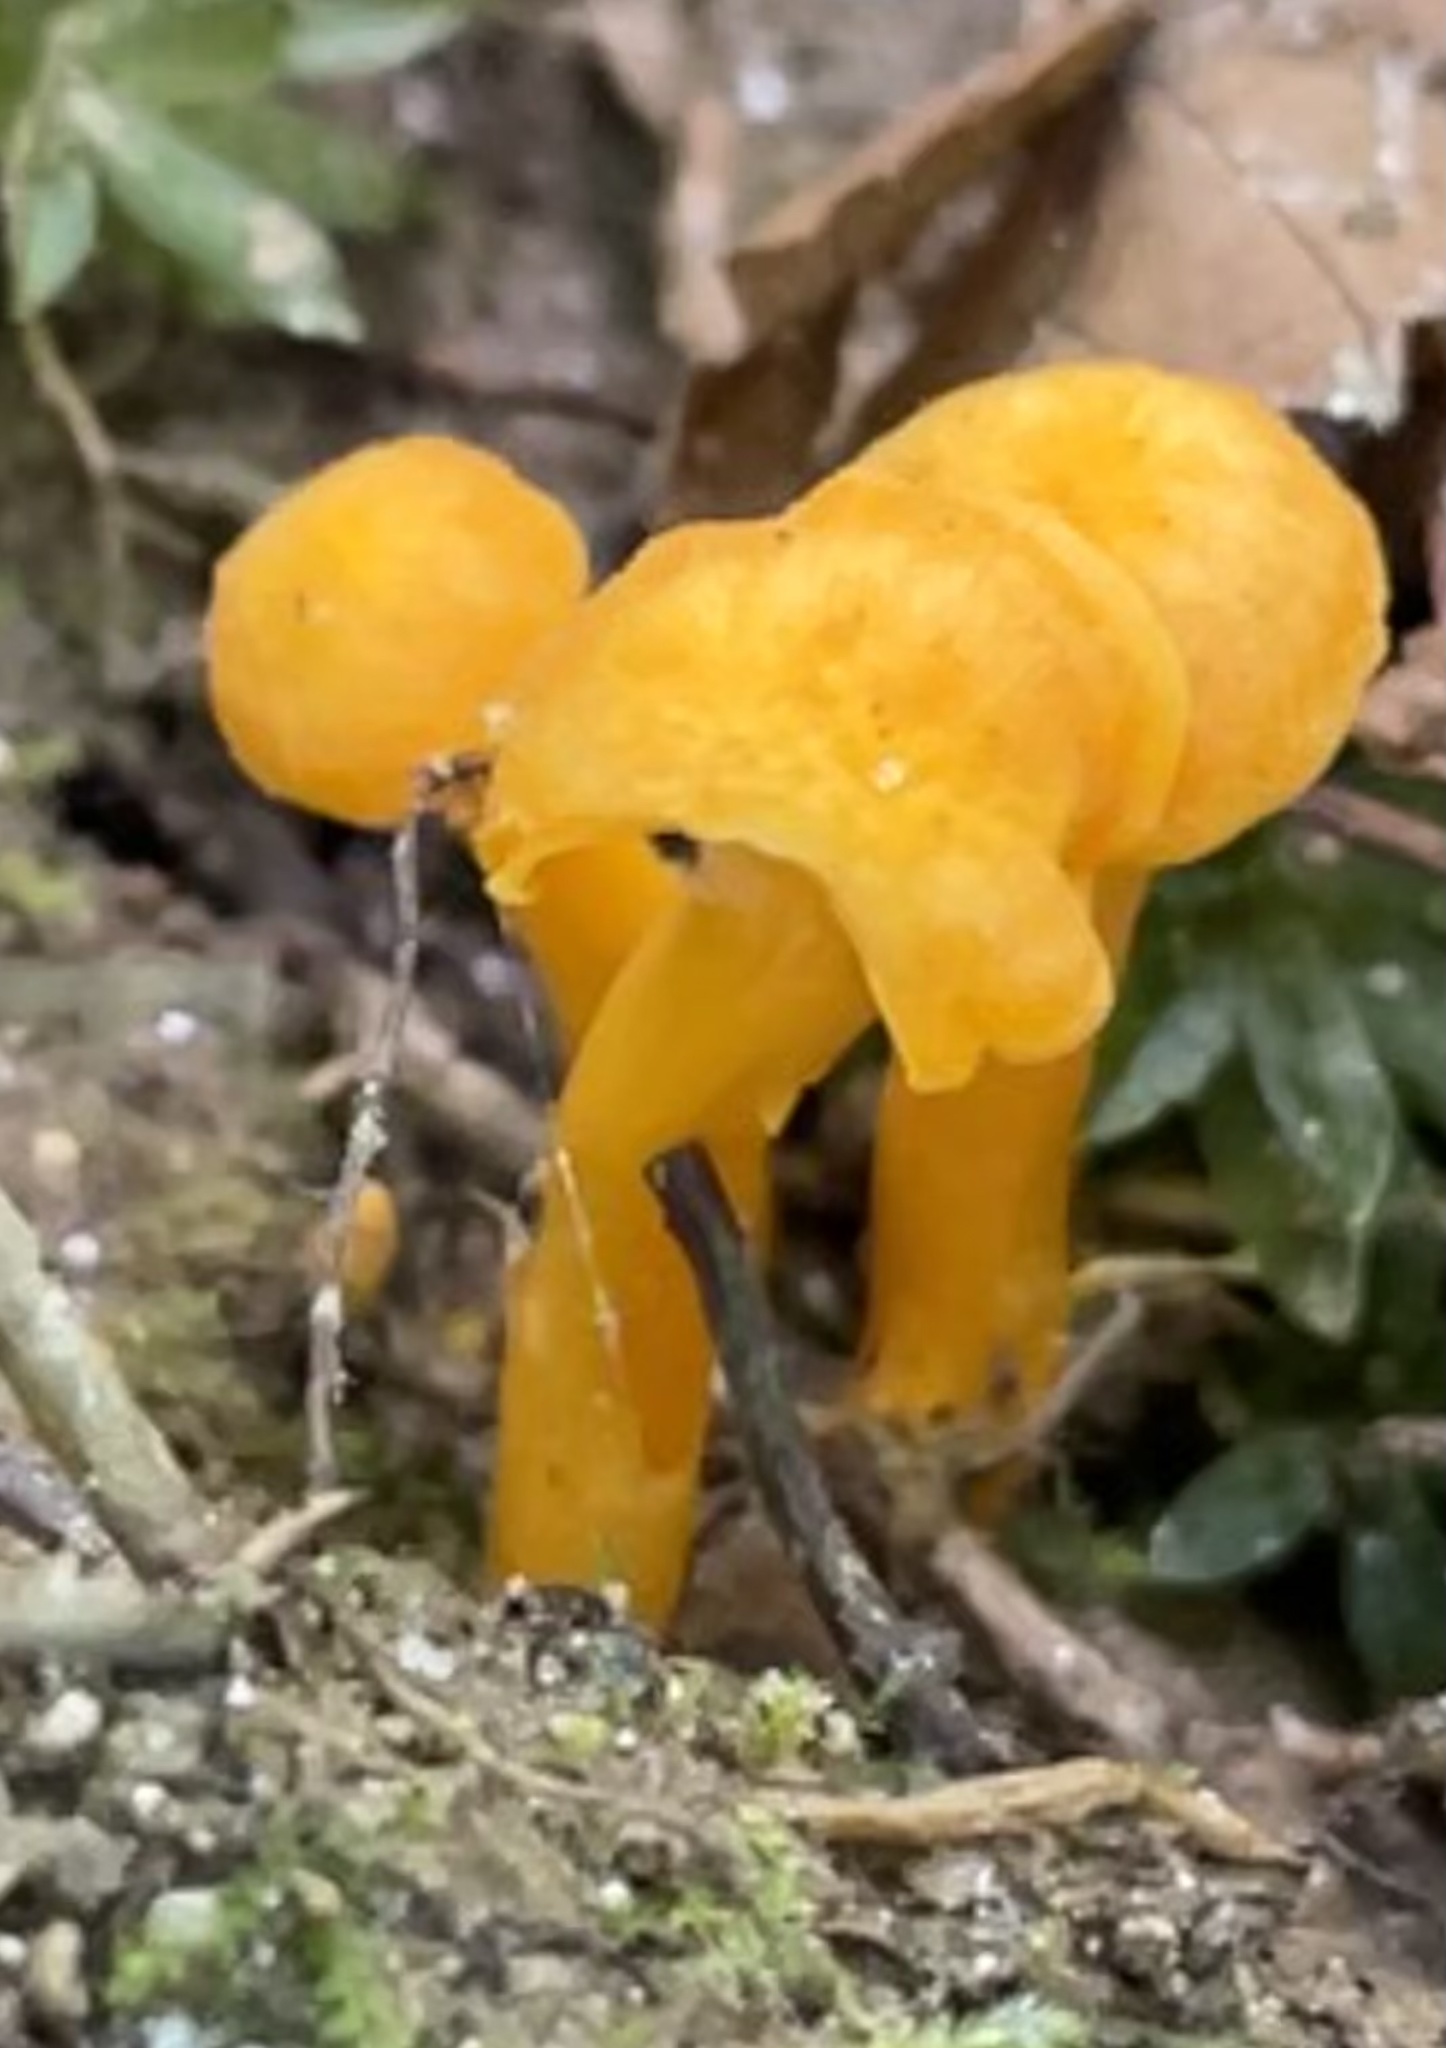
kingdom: Fungi
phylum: Basidiomycota
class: Agaricomycetes
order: Cantharellales
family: Hydnaceae
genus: Cantharellus
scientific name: Cantharellus minor
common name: Small chanterelle
